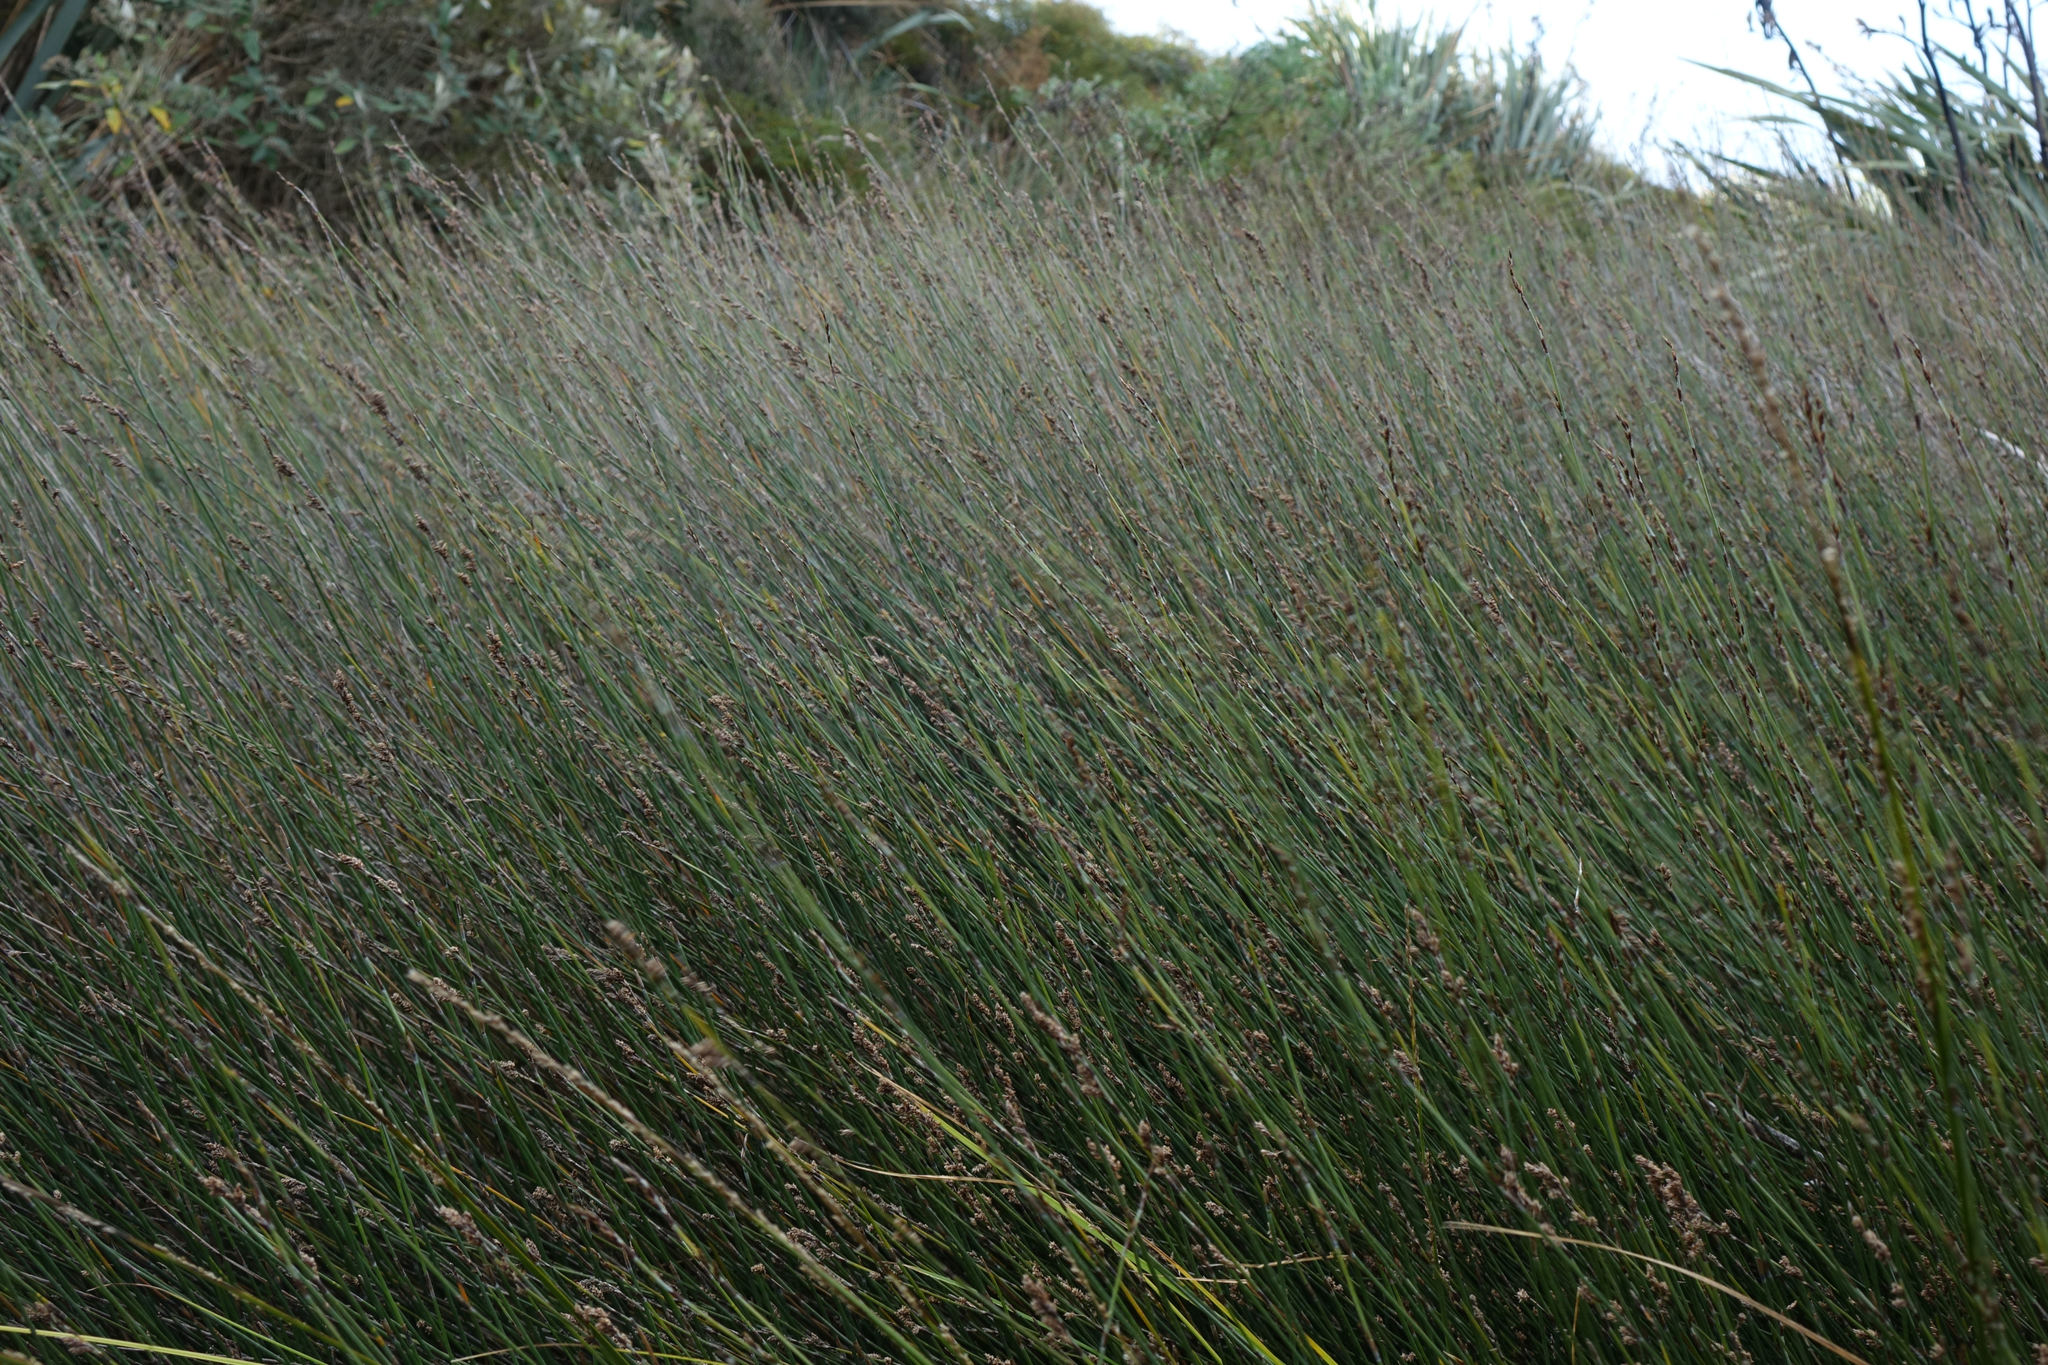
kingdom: Plantae
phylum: Tracheophyta
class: Liliopsida
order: Poales
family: Restionaceae
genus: Apodasmia
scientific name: Apodasmia similis
